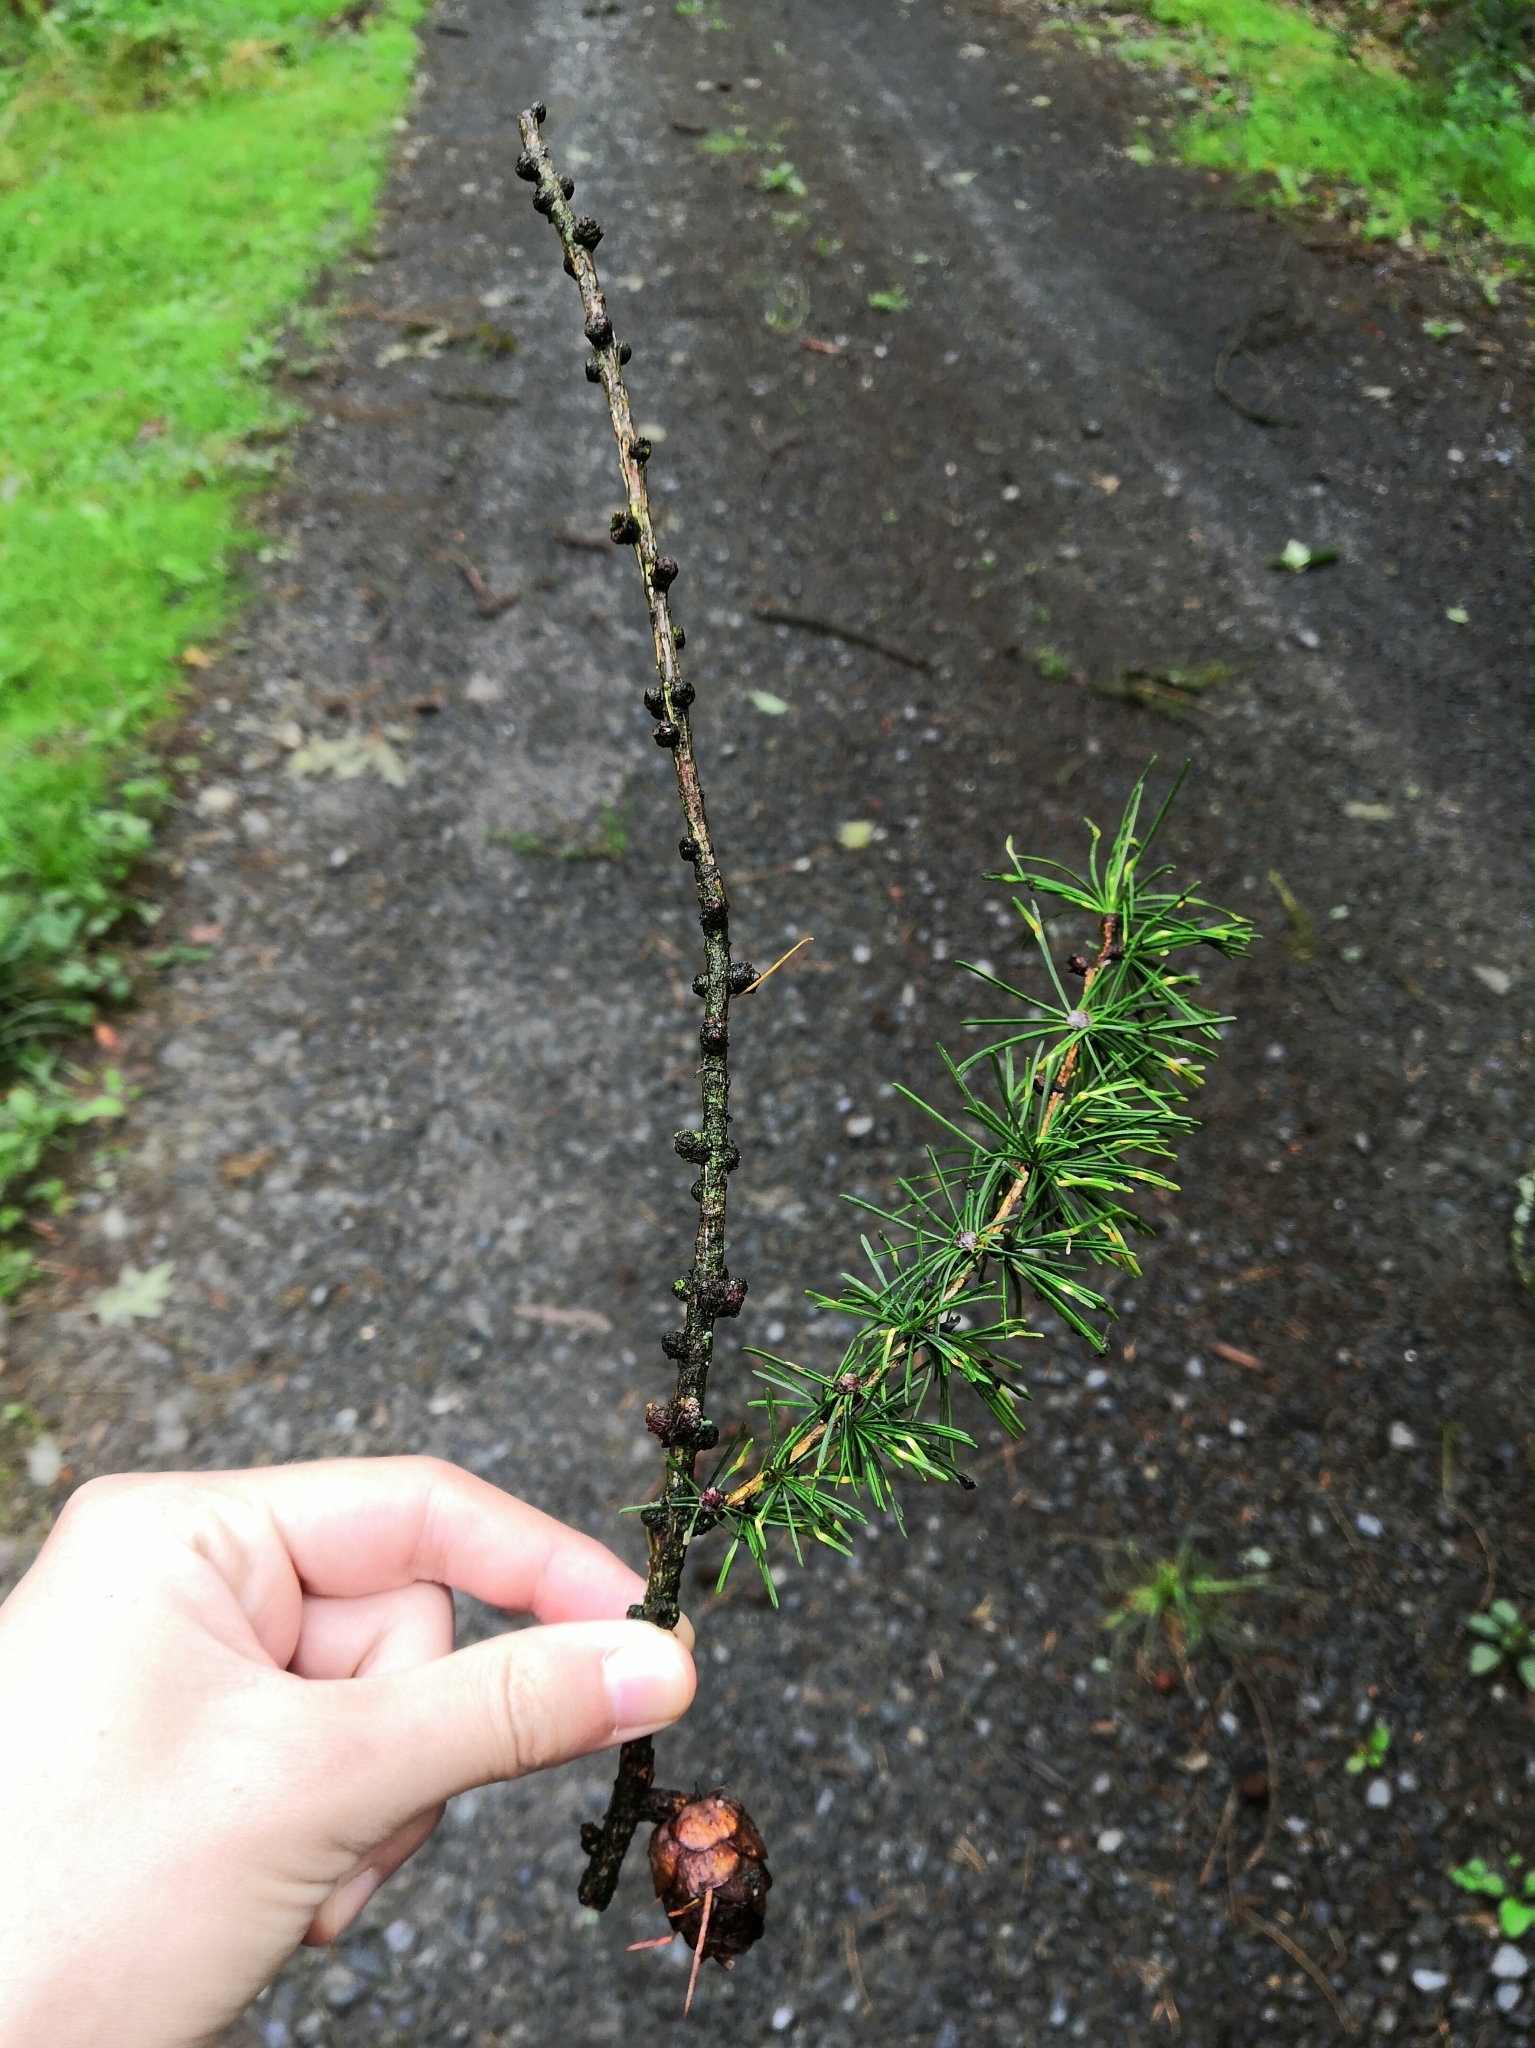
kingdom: Plantae
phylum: Tracheophyta
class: Pinopsida
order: Pinales
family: Pinaceae
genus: Larix
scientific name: Larix decidua
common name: European larch
